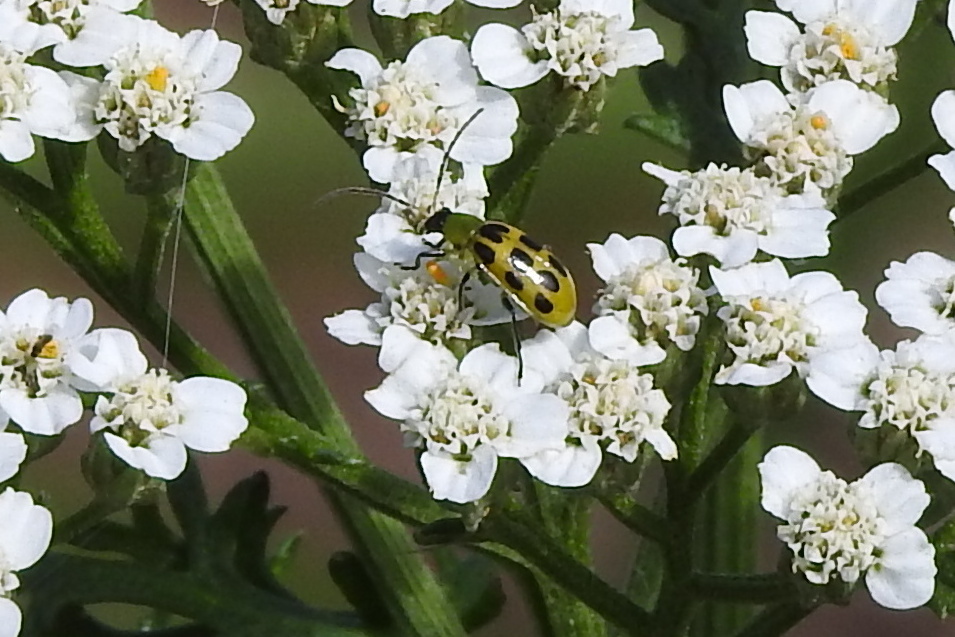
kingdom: Animalia
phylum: Arthropoda
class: Insecta
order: Coleoptera
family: Chrysomelidae
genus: Diabrotica
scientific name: Diabrotica undecimpunctata
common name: Spotted cucumber beetle
